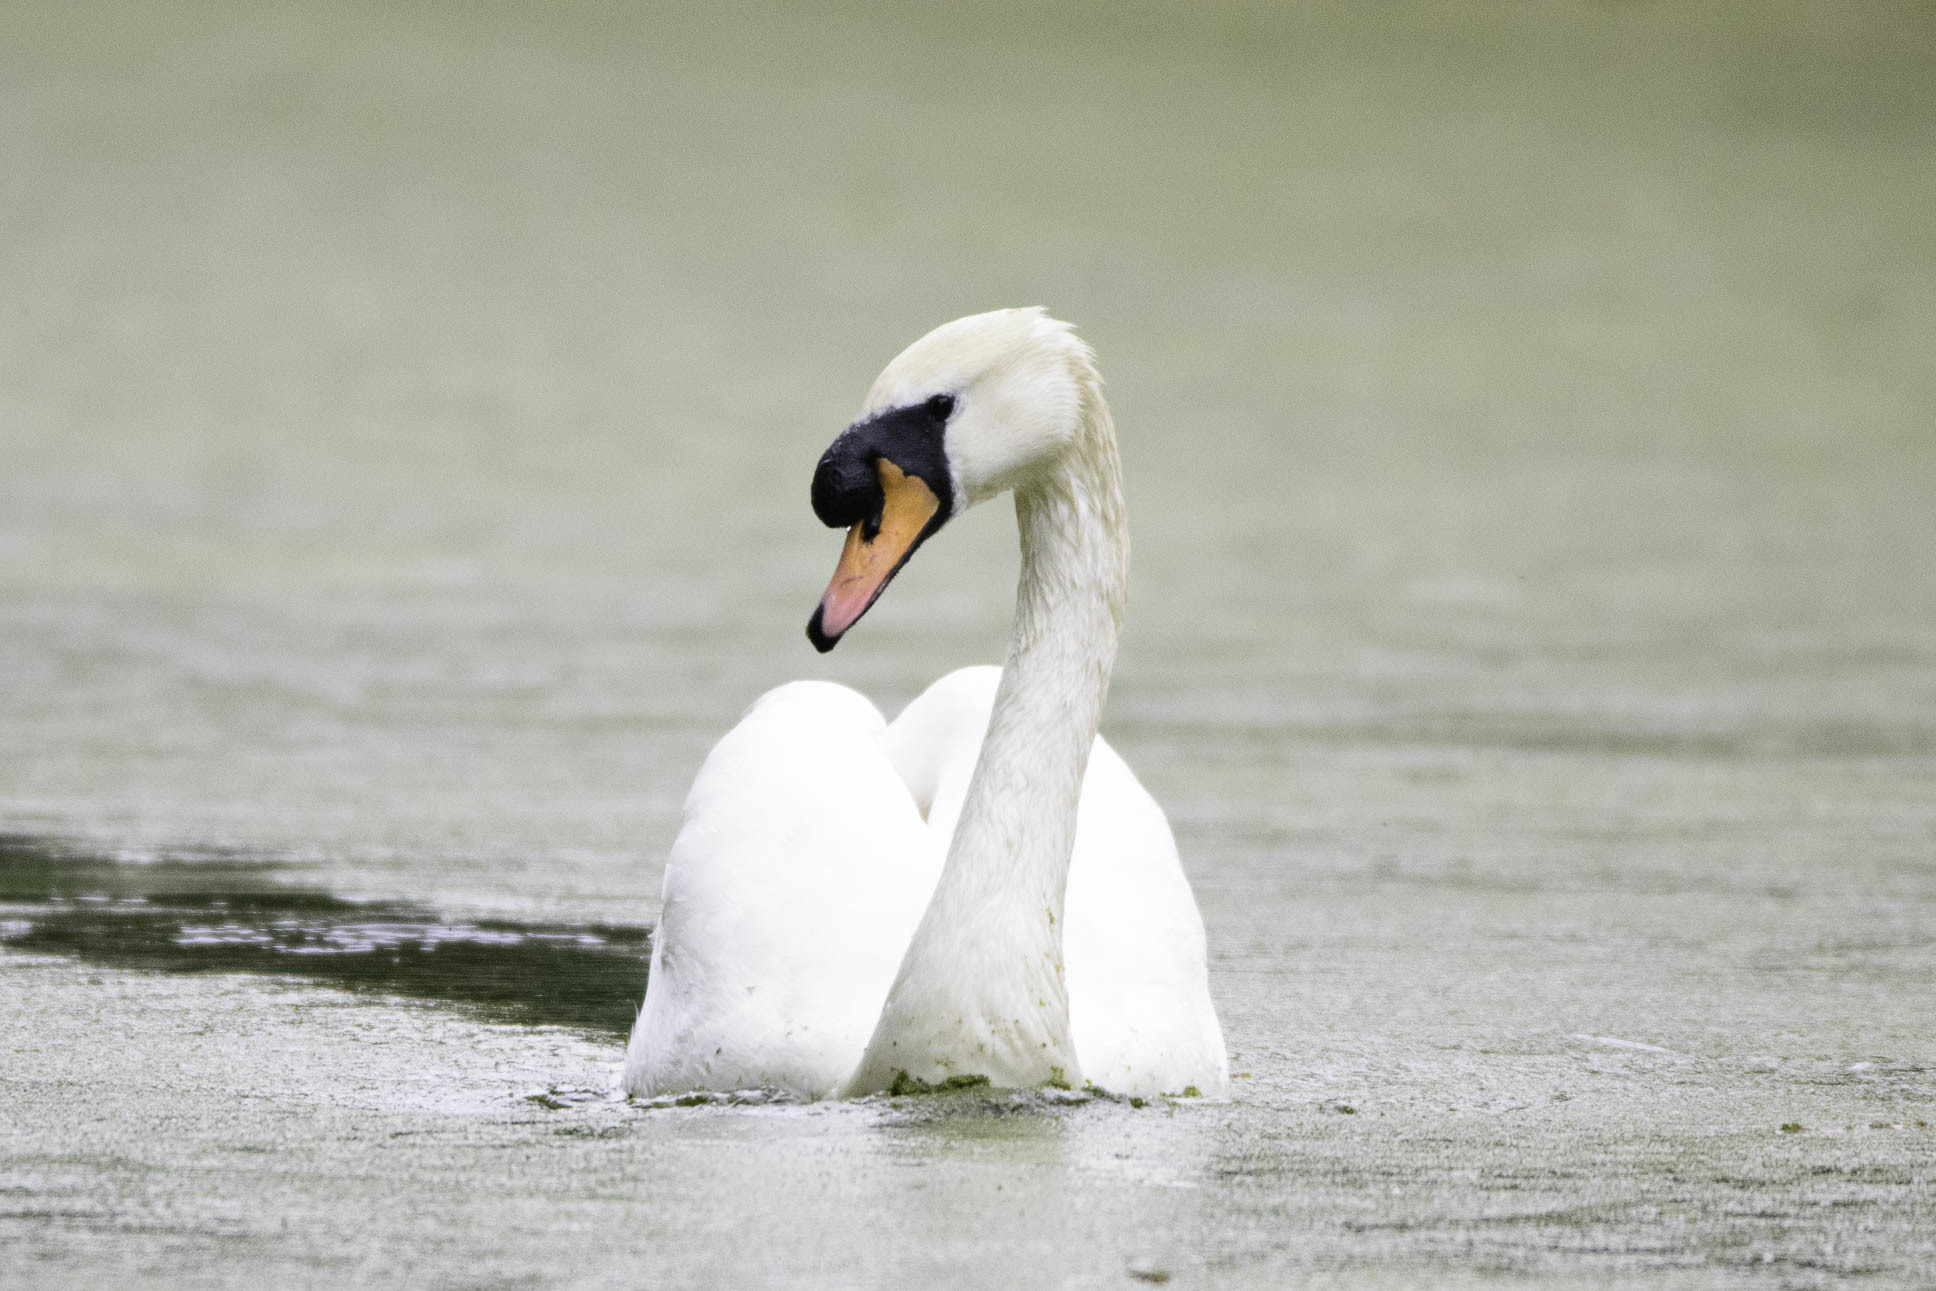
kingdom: Animalia
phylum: Chordata
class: Aves
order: Anseriformes
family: Anatidae
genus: Cygnus
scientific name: Cygnus olor
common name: Mute swan
